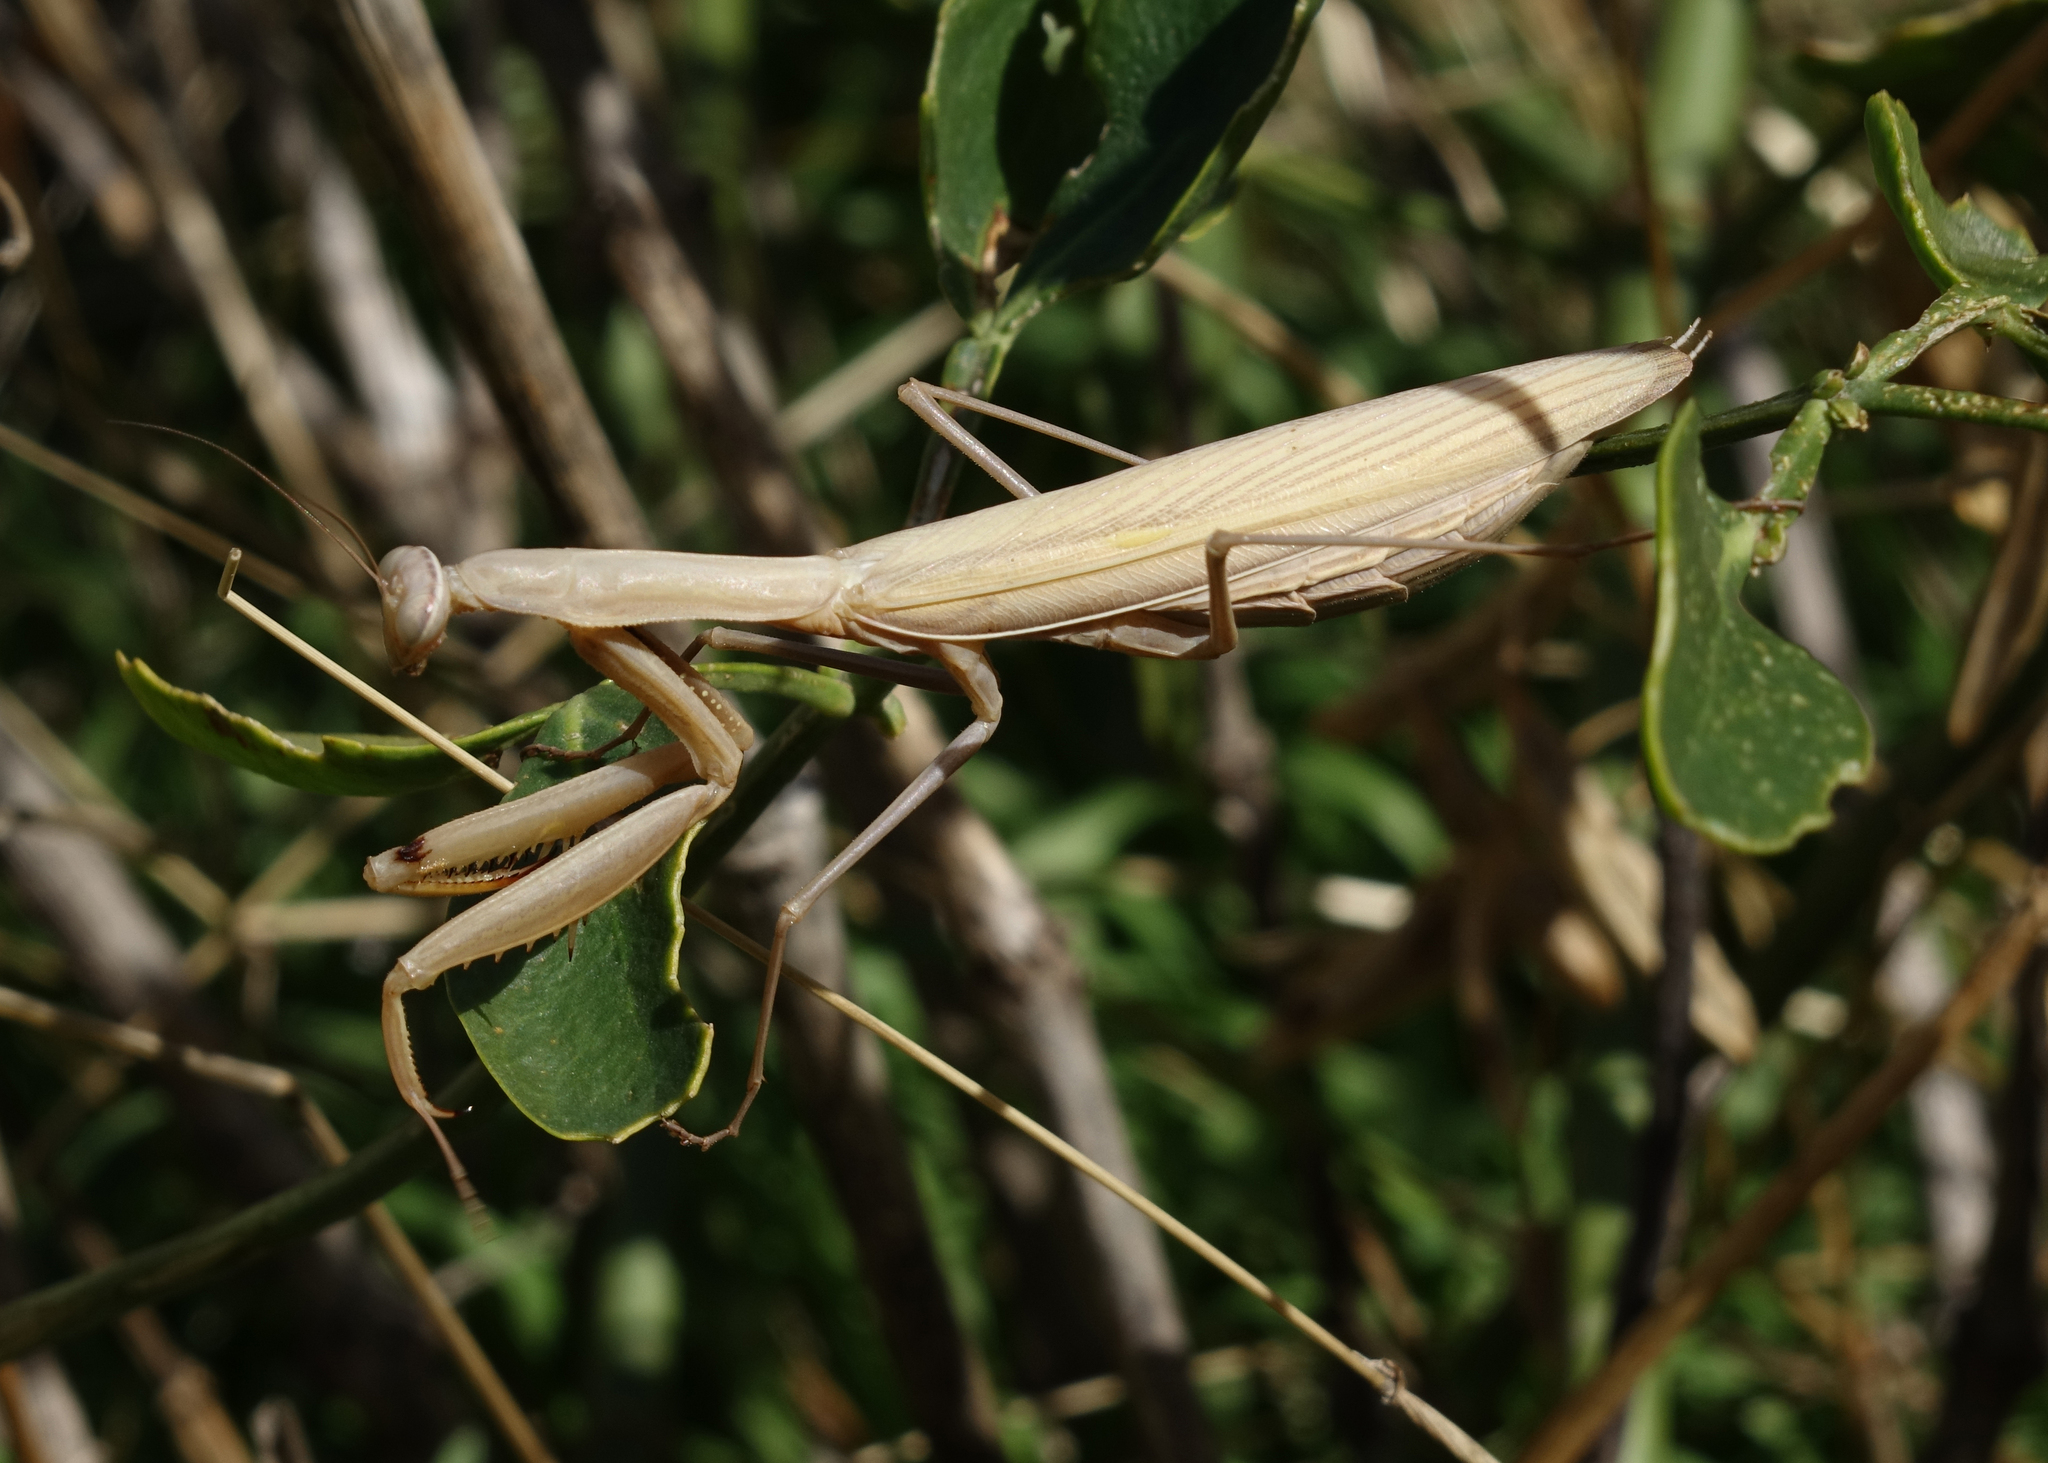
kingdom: Animalia
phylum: Arthropoda
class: Insecta
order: Mantodea
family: Mantidae
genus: Mantis
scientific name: Mantis religiosa
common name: Praying mantis
